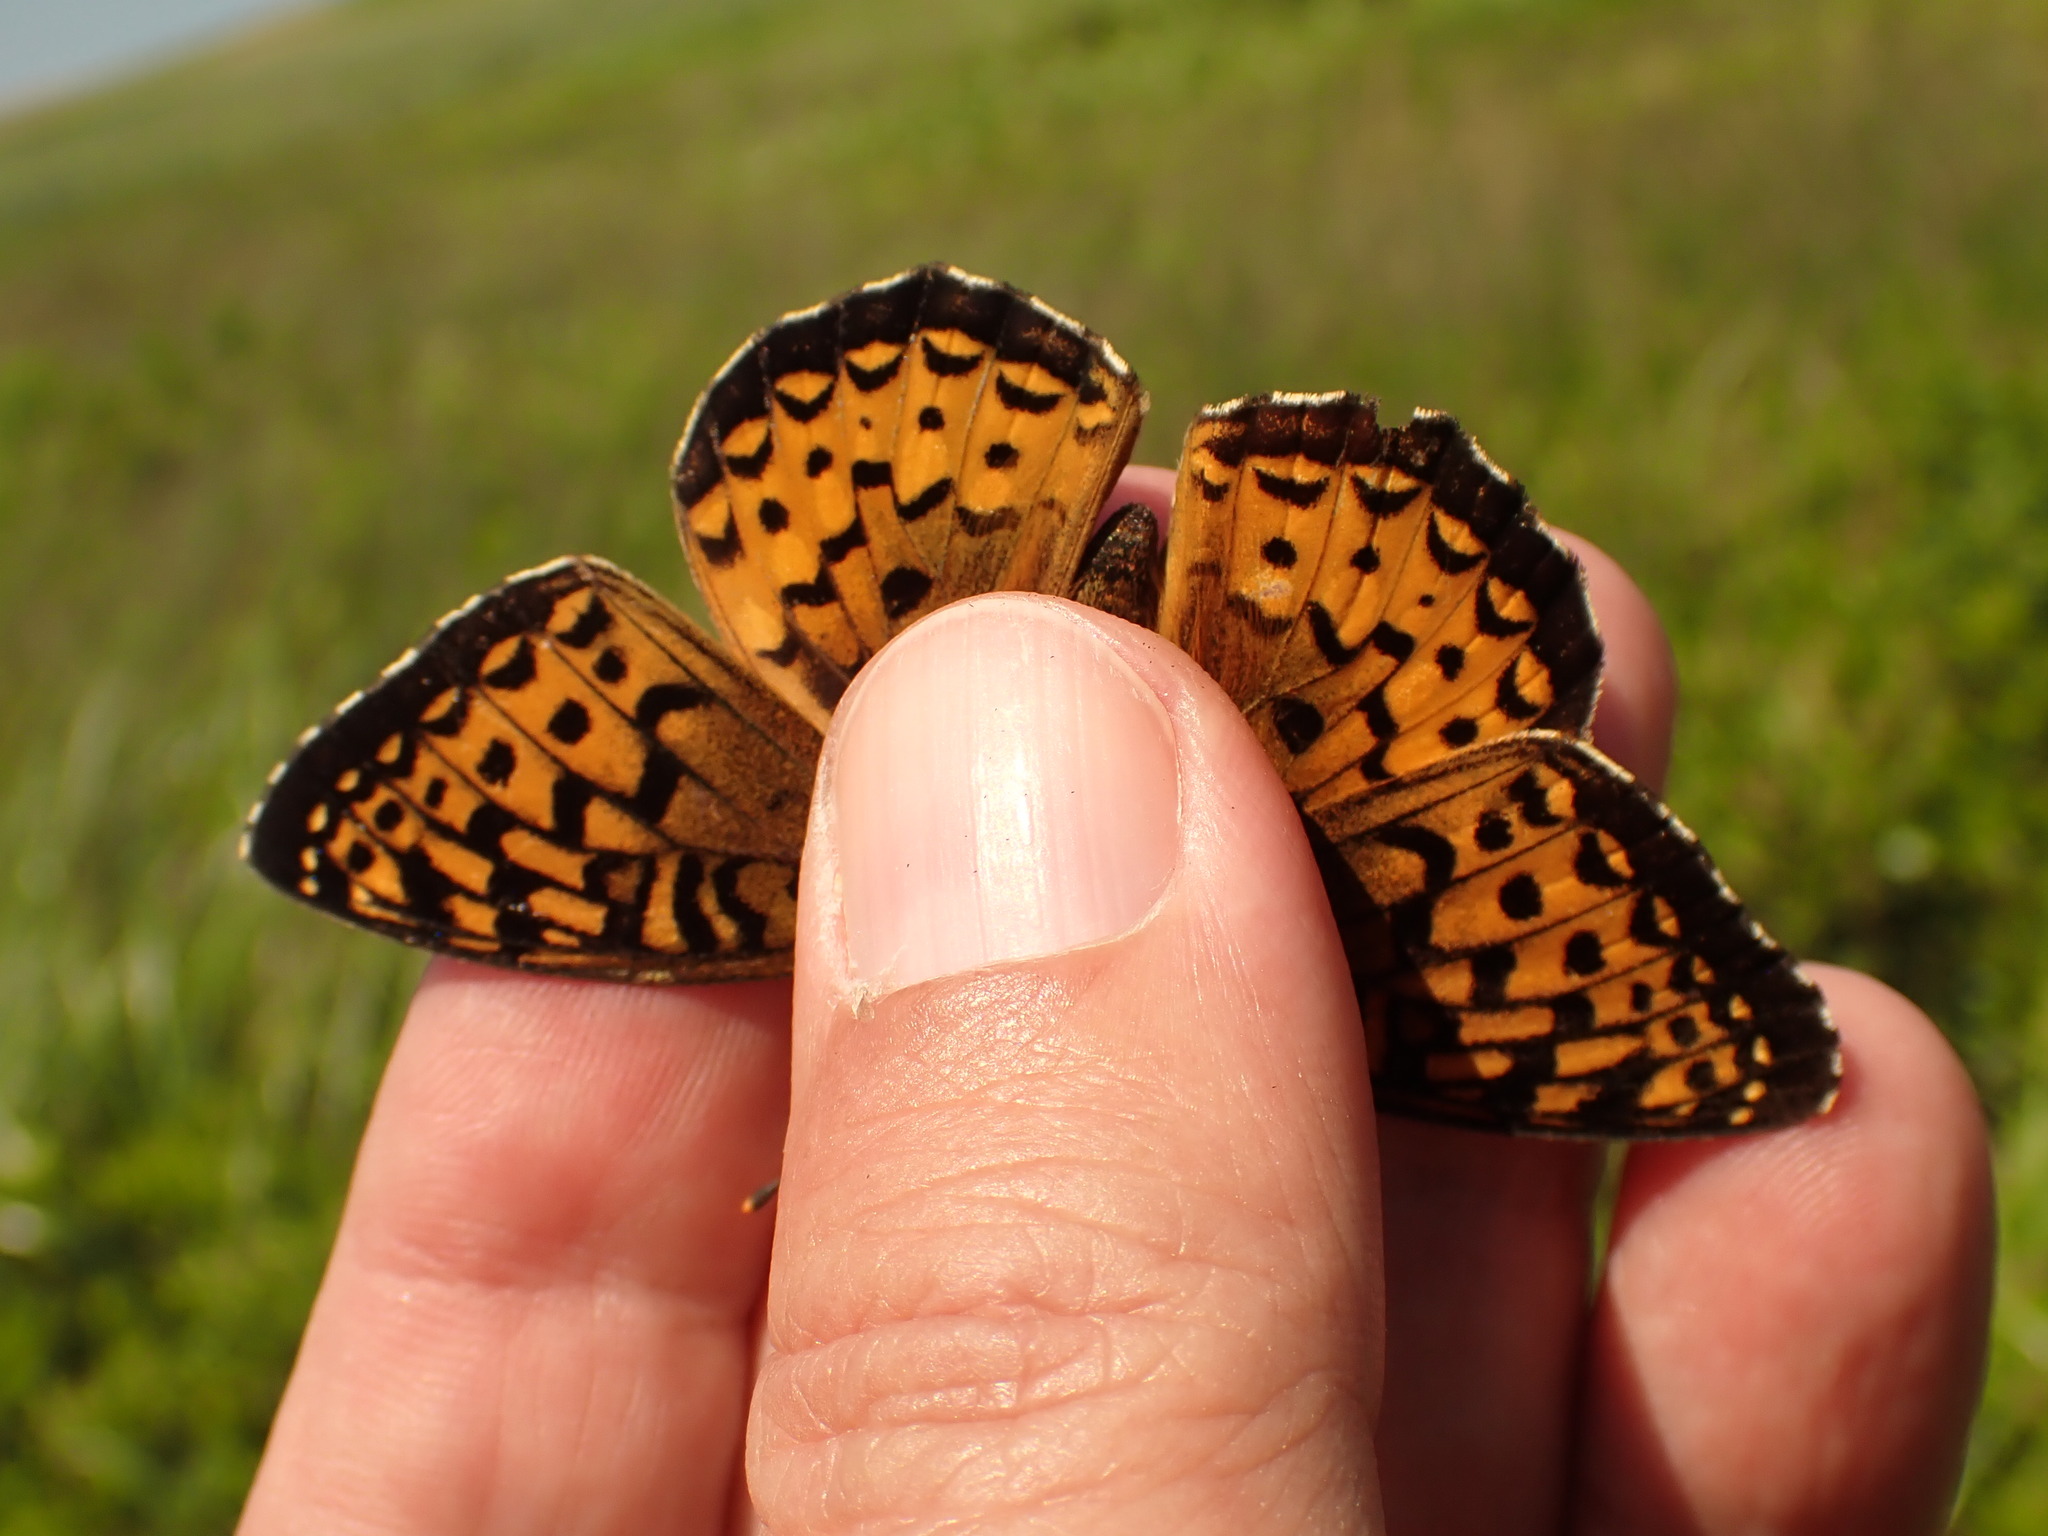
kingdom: Animalia
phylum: Arthropoda
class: Insecta
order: Lepidoptera
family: Nymphalidae
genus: Speyeria
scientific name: Speyeria atlantis
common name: Atlantis fritillary
